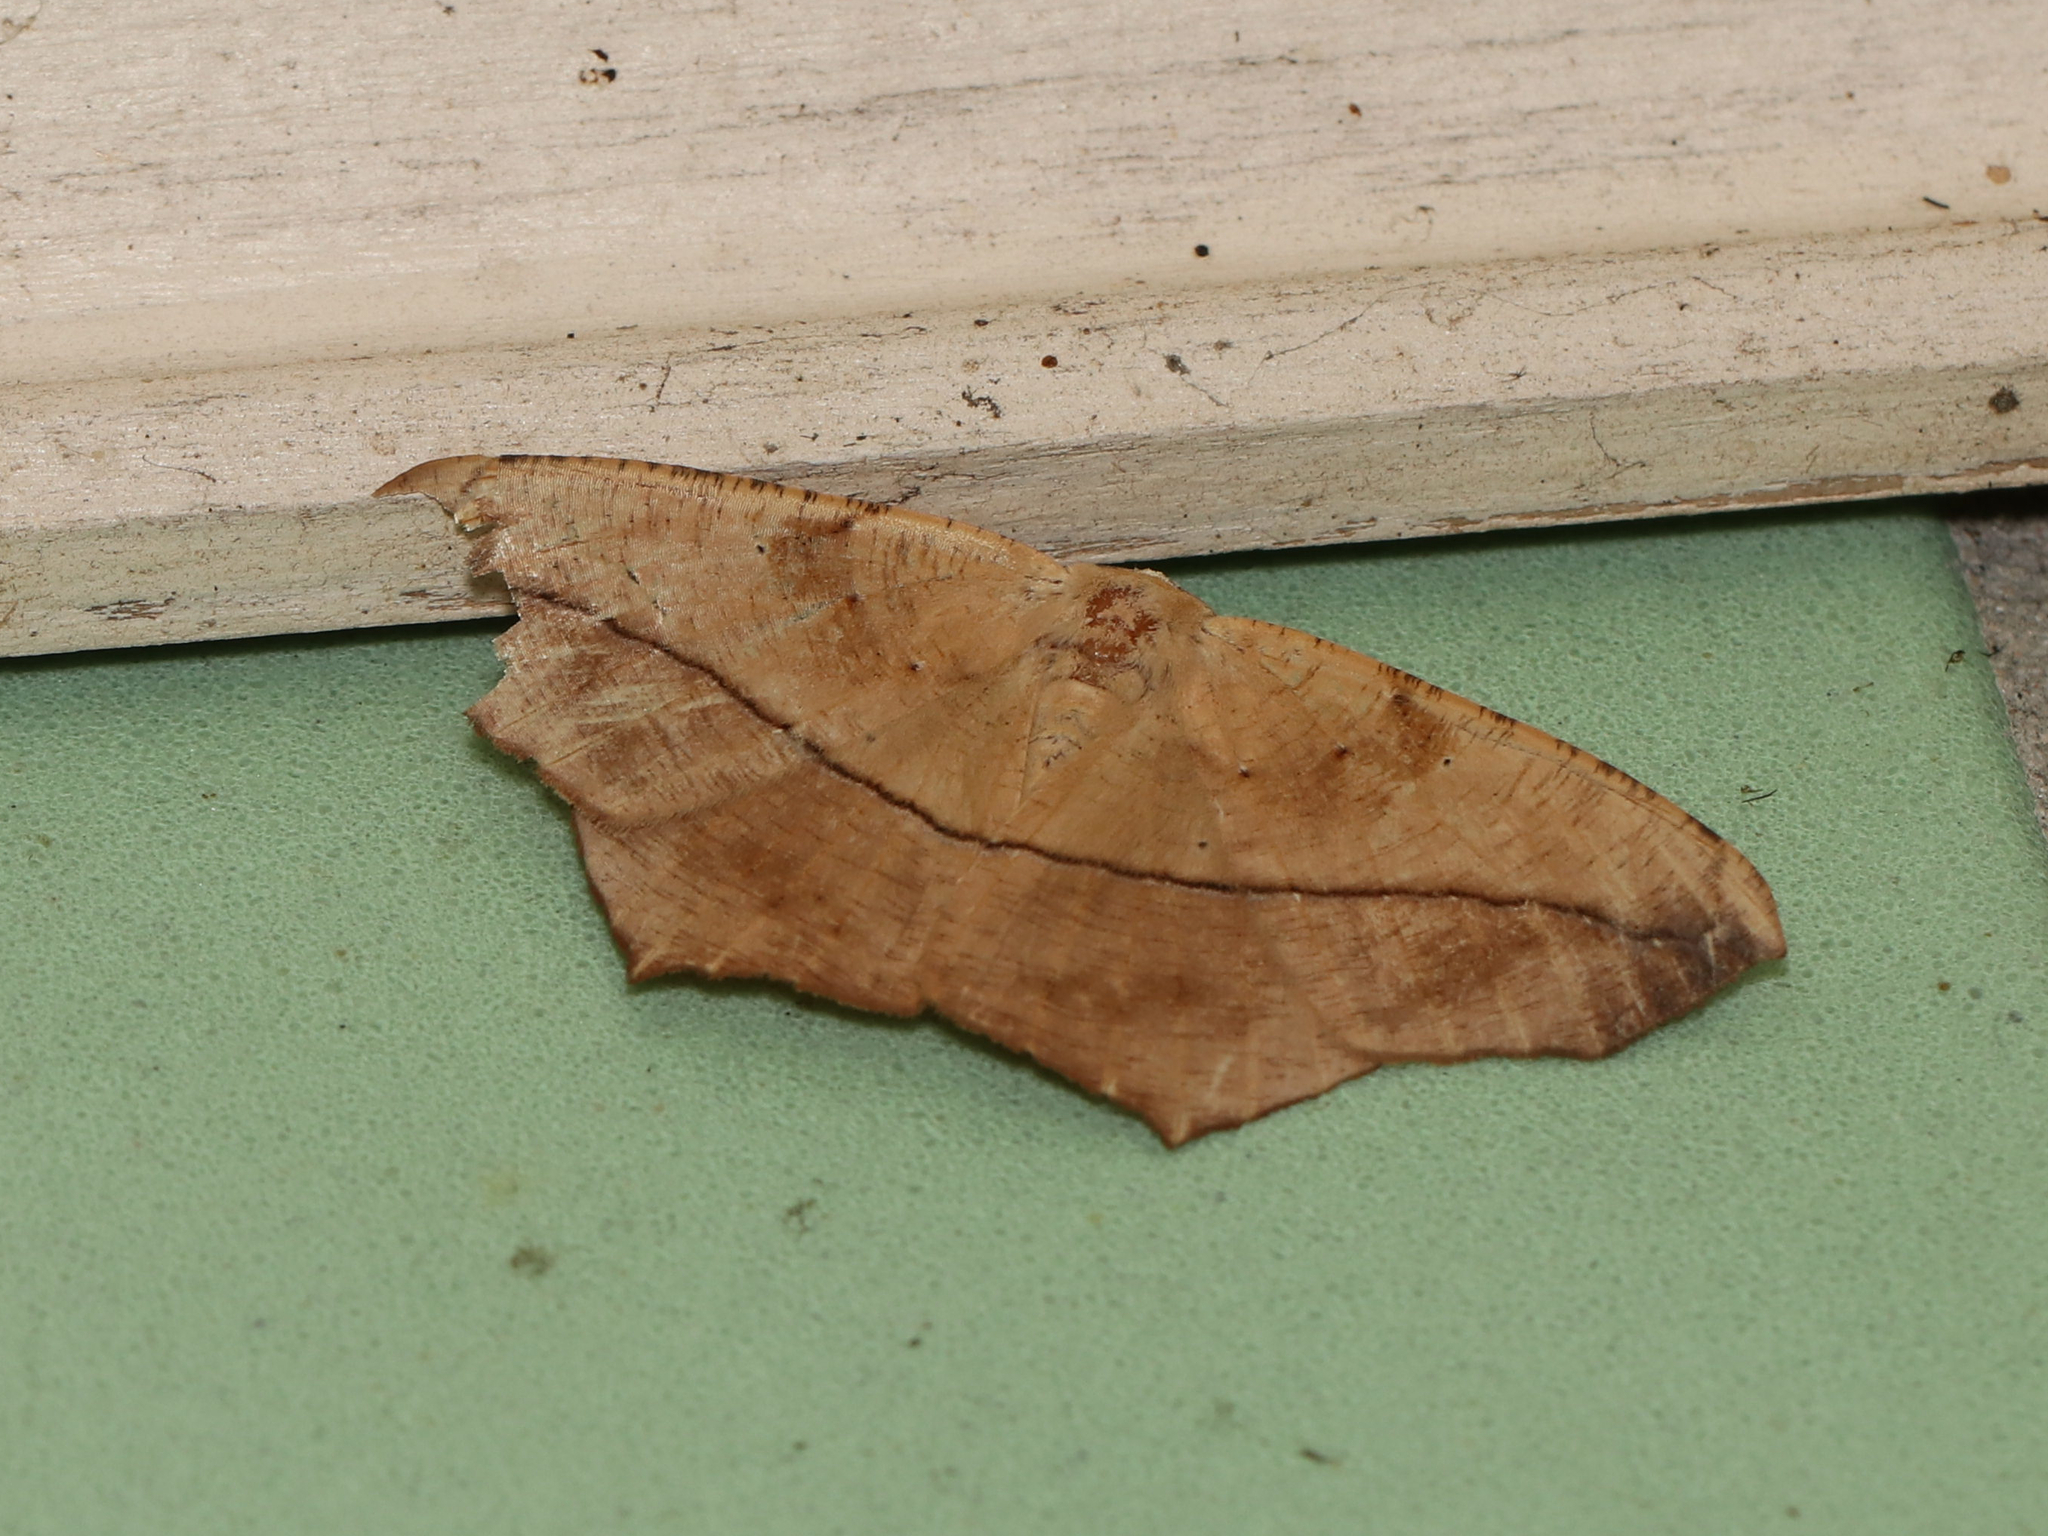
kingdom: Animalia
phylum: Arthropoda
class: Insecta
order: Lepidoptera
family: Geometridae
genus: Prochoerodes
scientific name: Prochoerodes lineola
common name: Large maple spanworm
